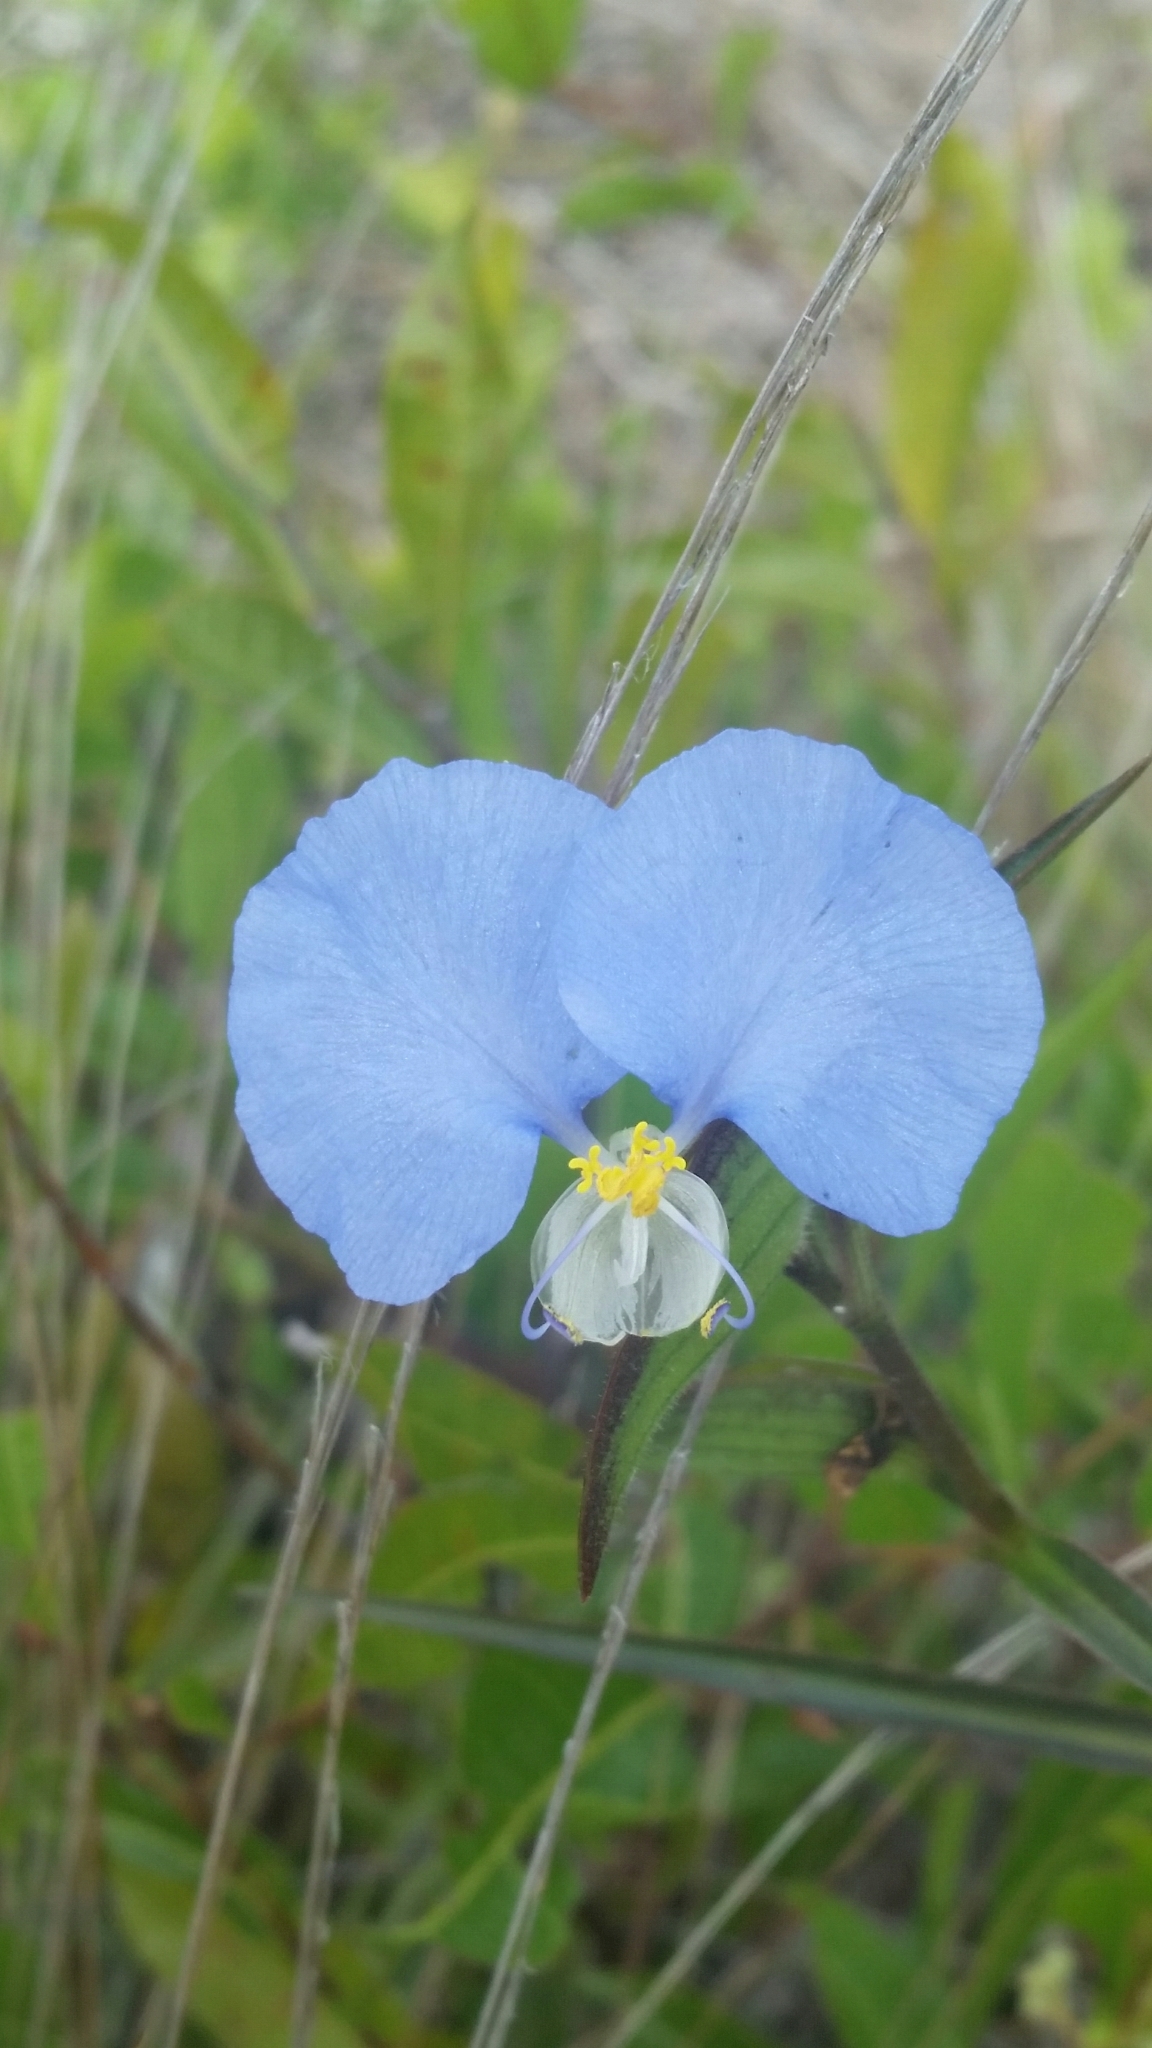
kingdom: Plantae
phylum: Tracheophyta
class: Liliopsida
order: Commelinales
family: Commelinaceae
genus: Commelina
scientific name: Commelina erecta
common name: Blousel blommetjie
